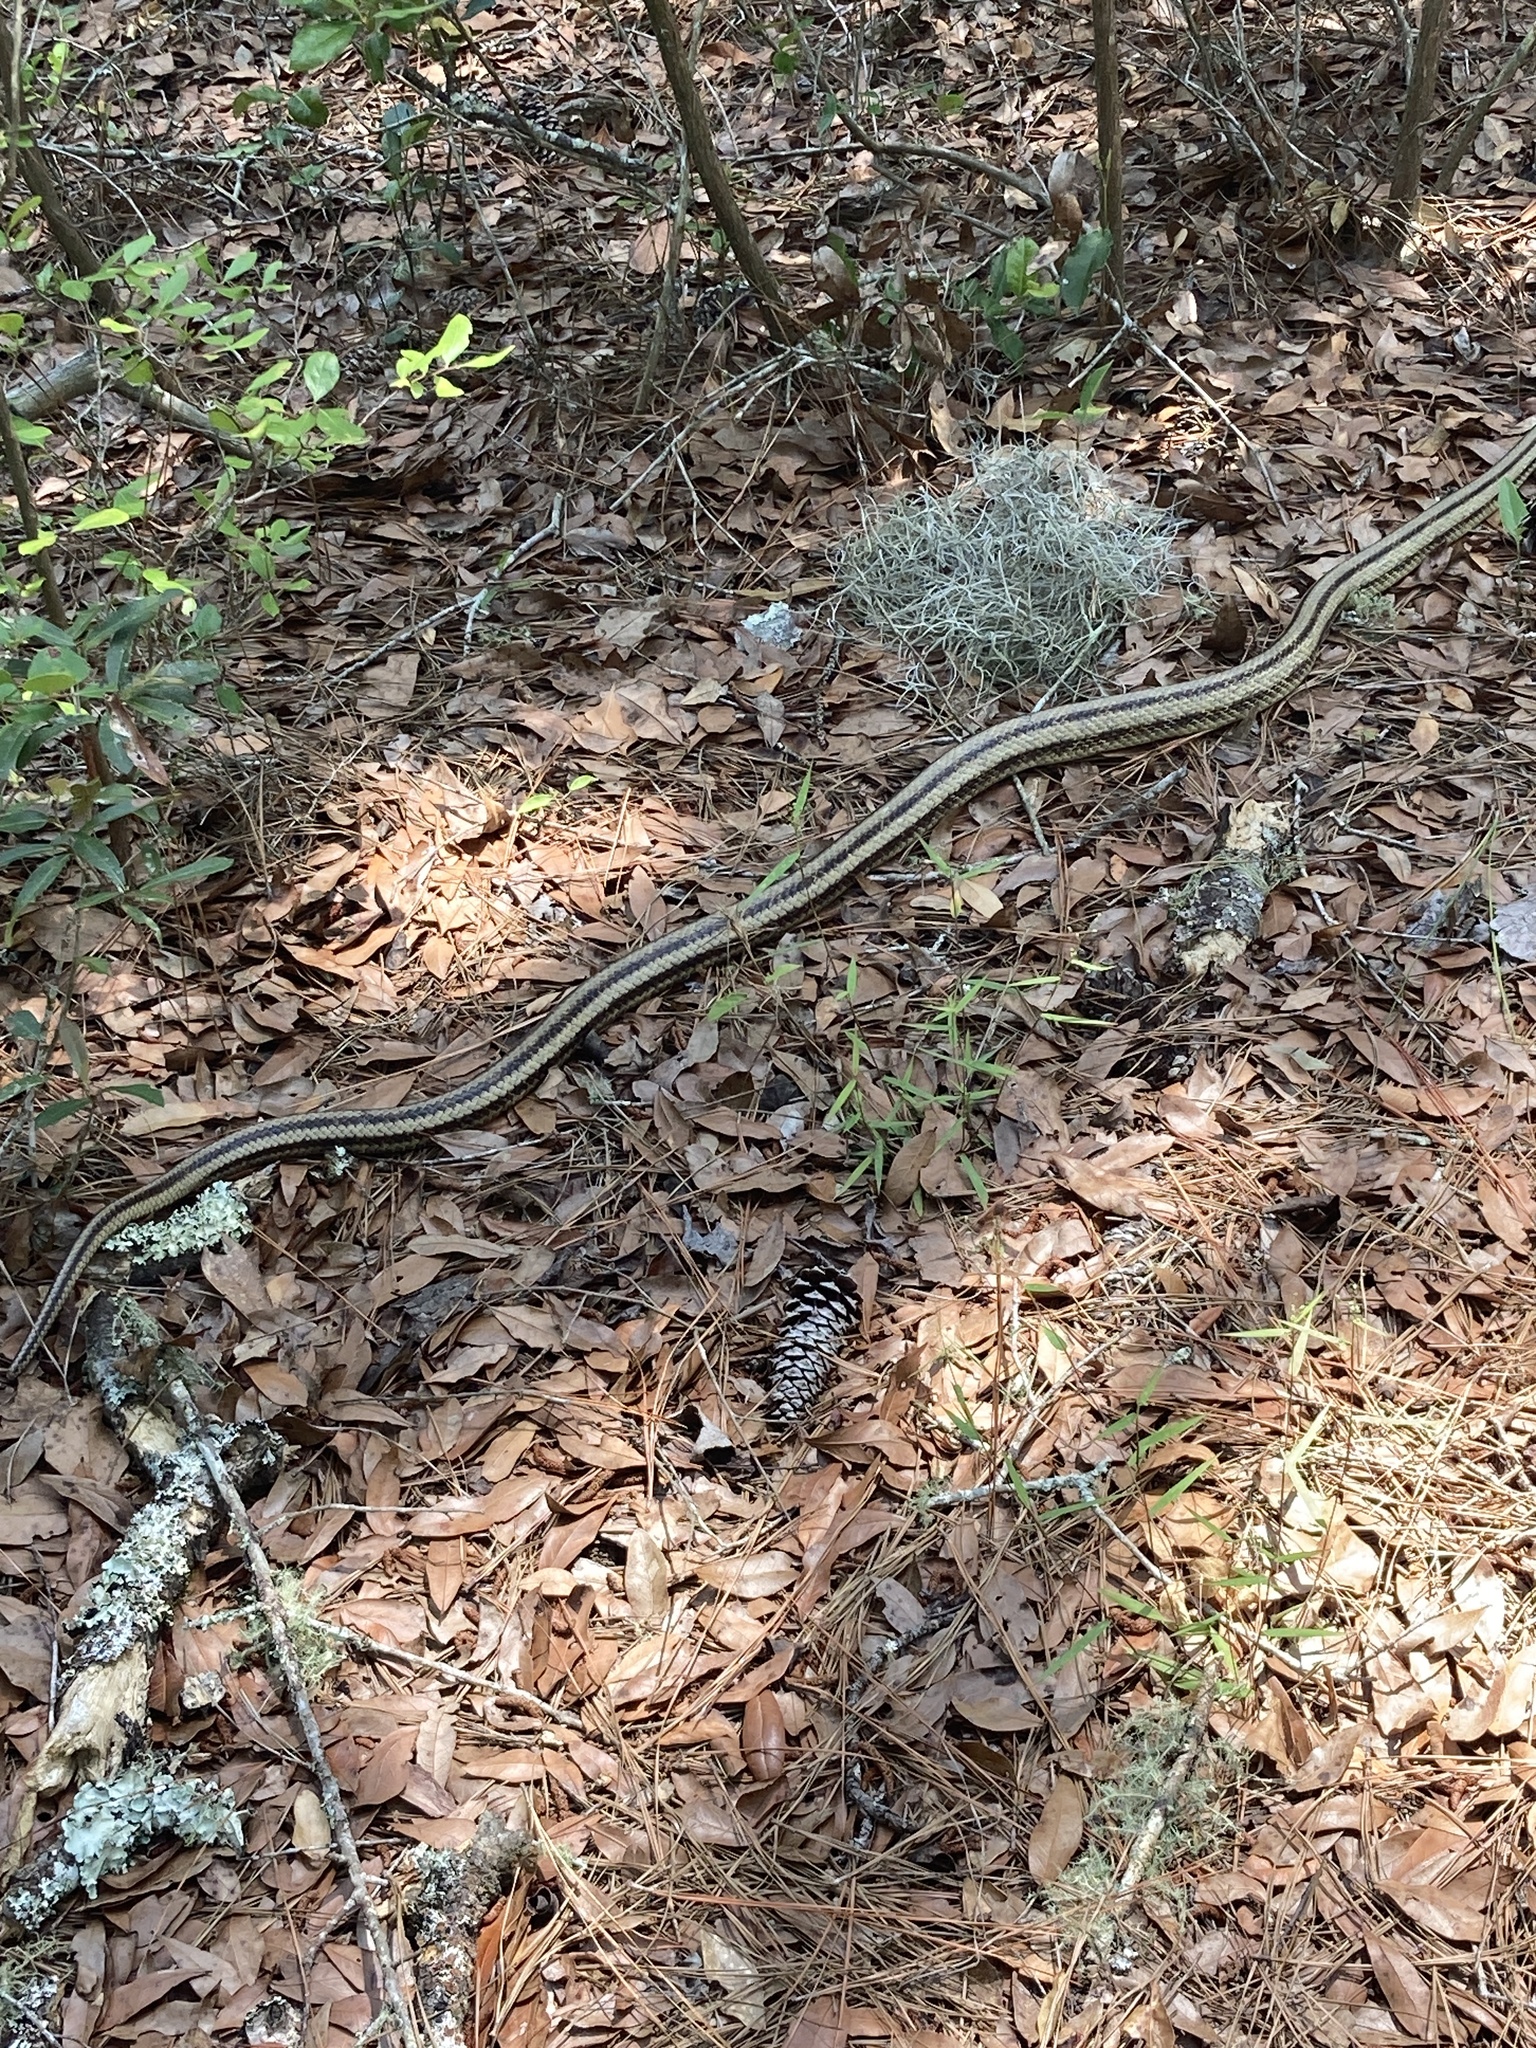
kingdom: Animalia
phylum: Chordata
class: Squamata
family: Colubridae
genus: Pantherophis
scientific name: Pantherophis alleghaniensis
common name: Eastern rat snake
